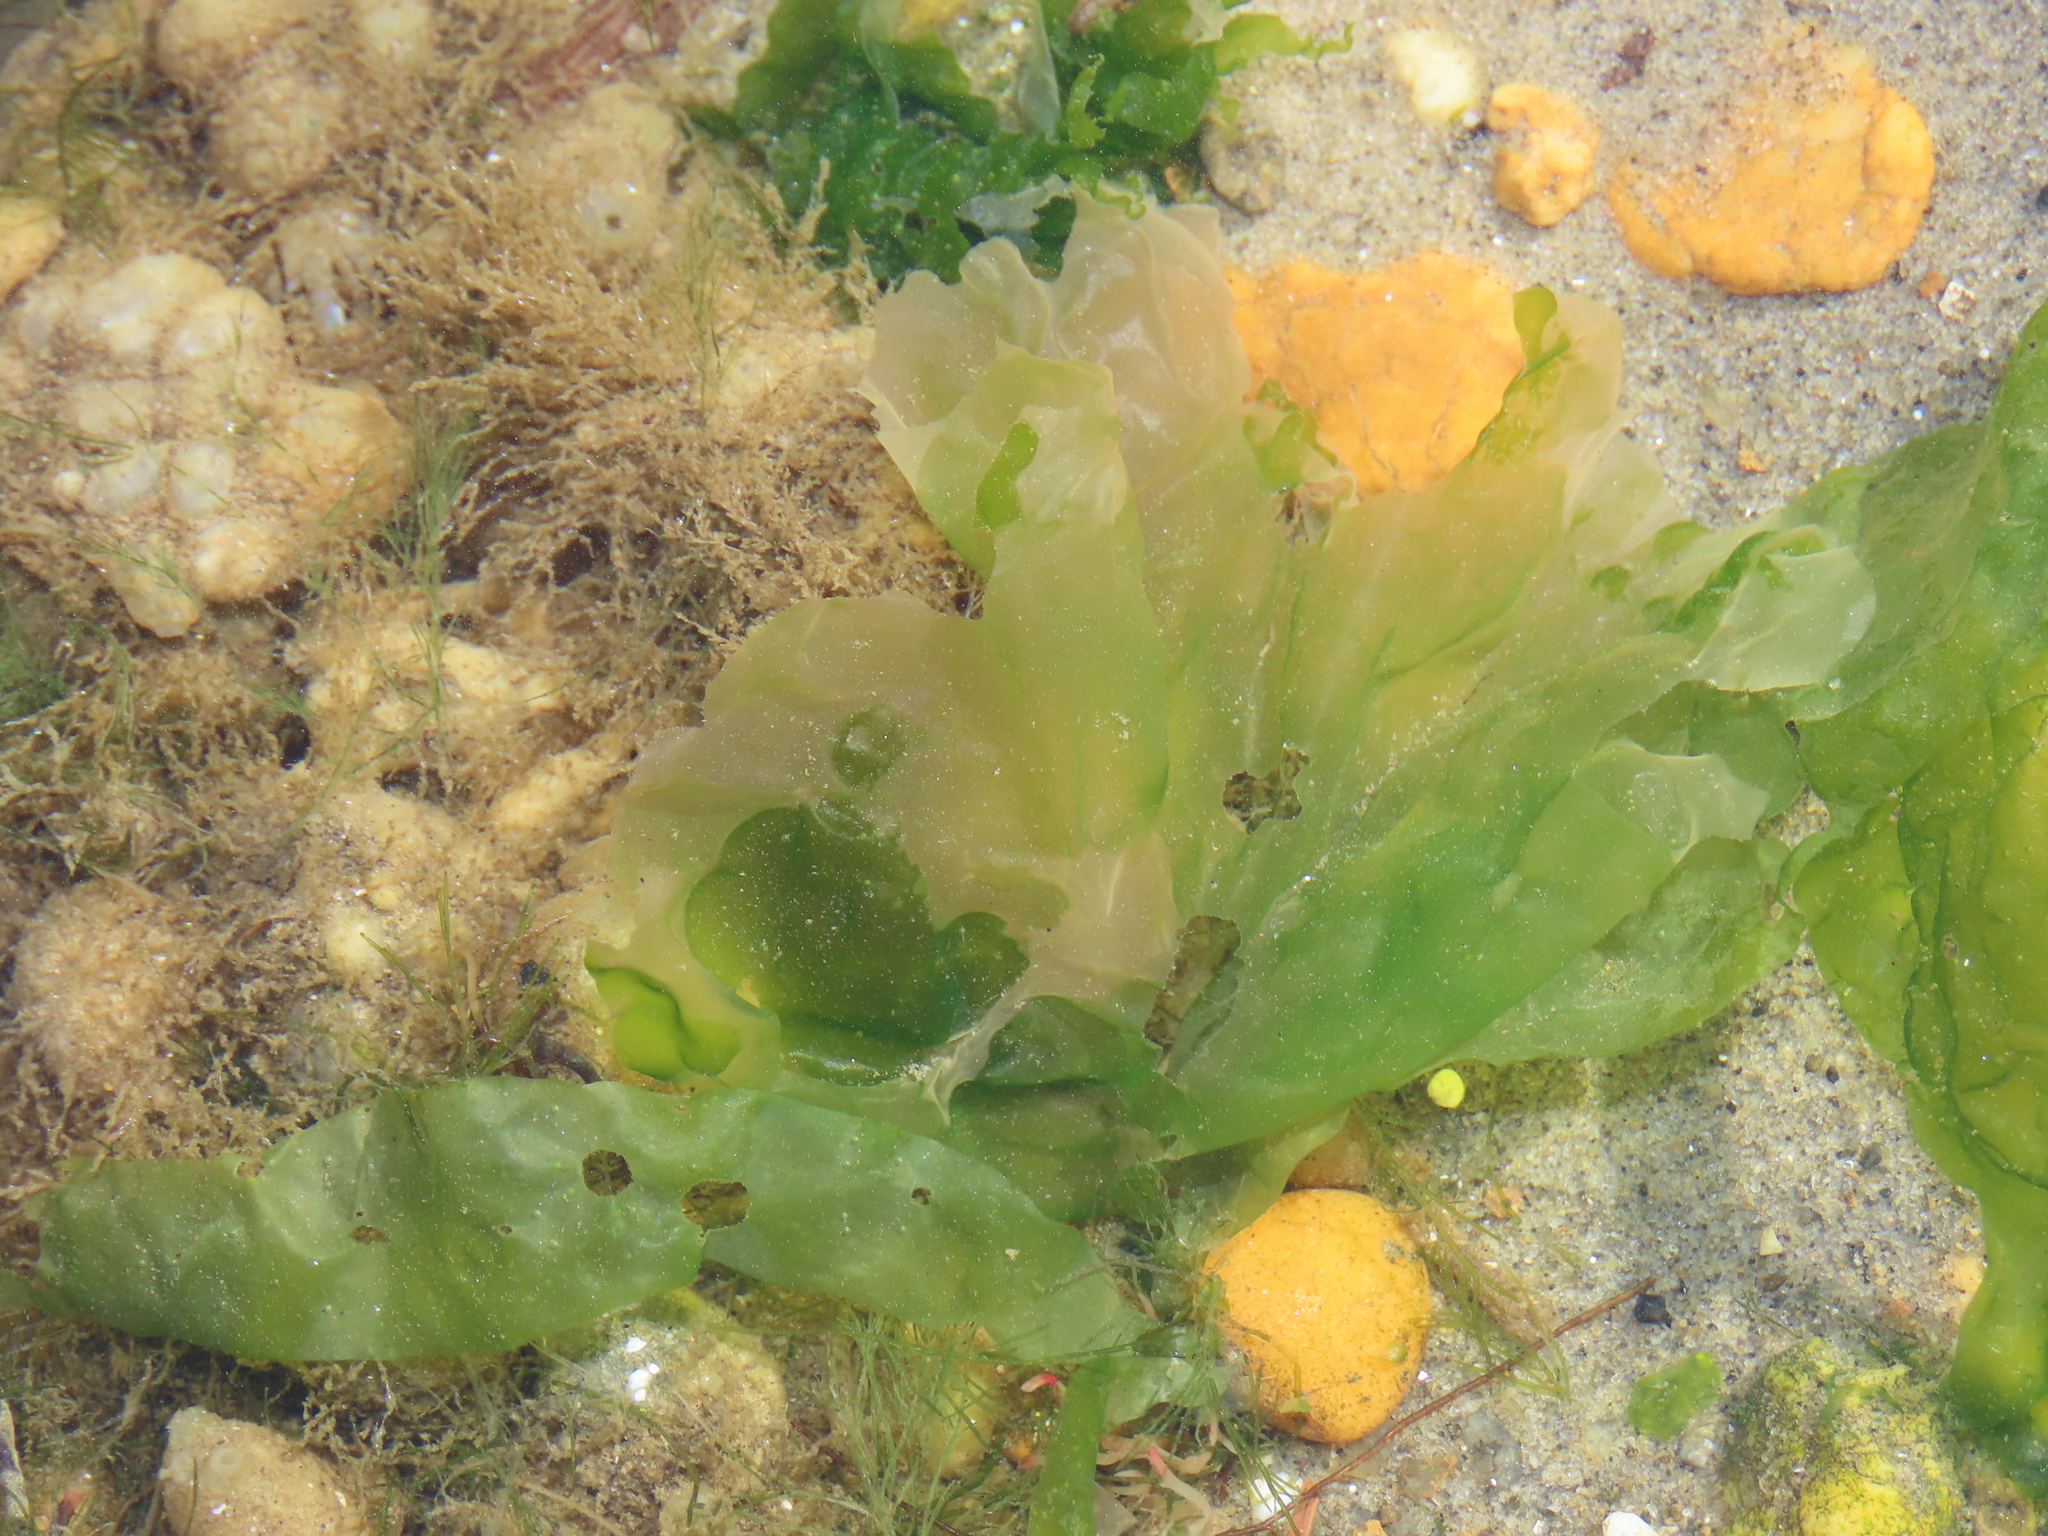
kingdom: Plantae
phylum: Chlorophyta
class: Ulvophyceae
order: Ulvales
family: Ulvaceae
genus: Ulva
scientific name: Ulva lactuca
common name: Sea lettuce
